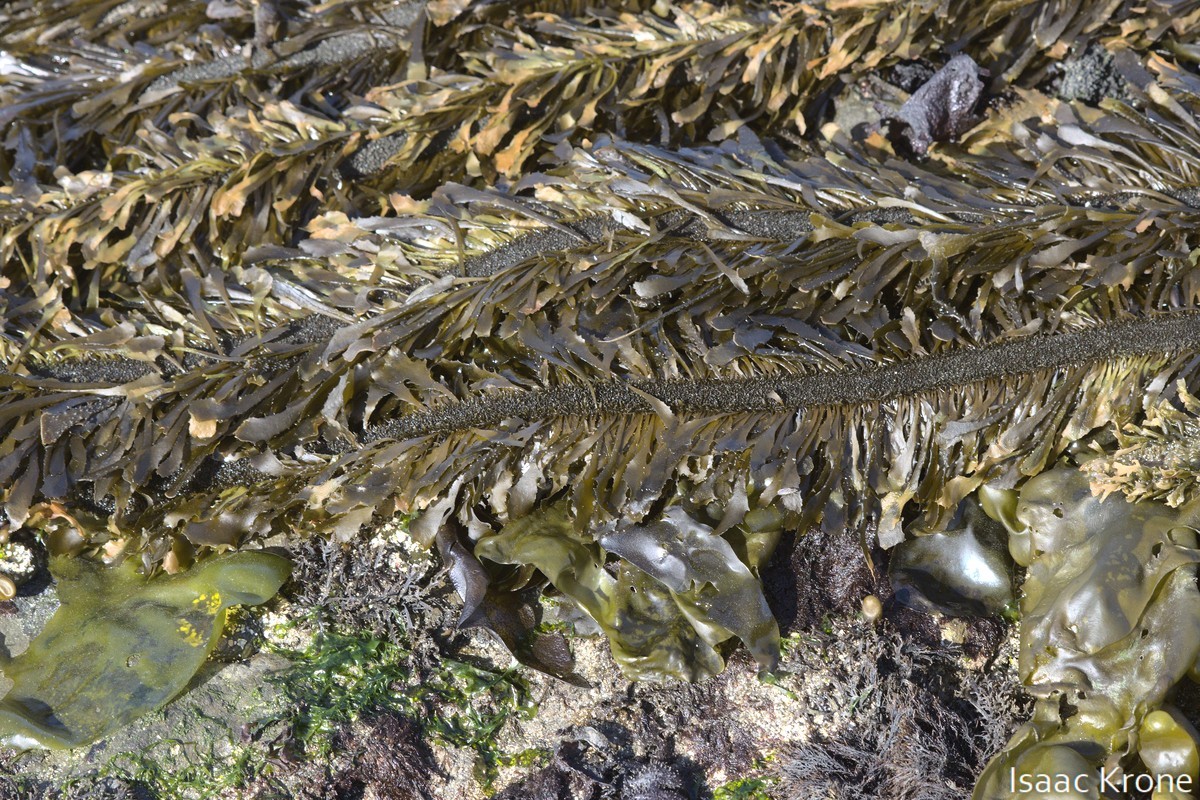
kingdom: Chromista
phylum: Ochrophyta
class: Phaeophyceae
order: Laminariales
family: Lessoniaceae
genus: Egregia
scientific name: Egregia menziesii
